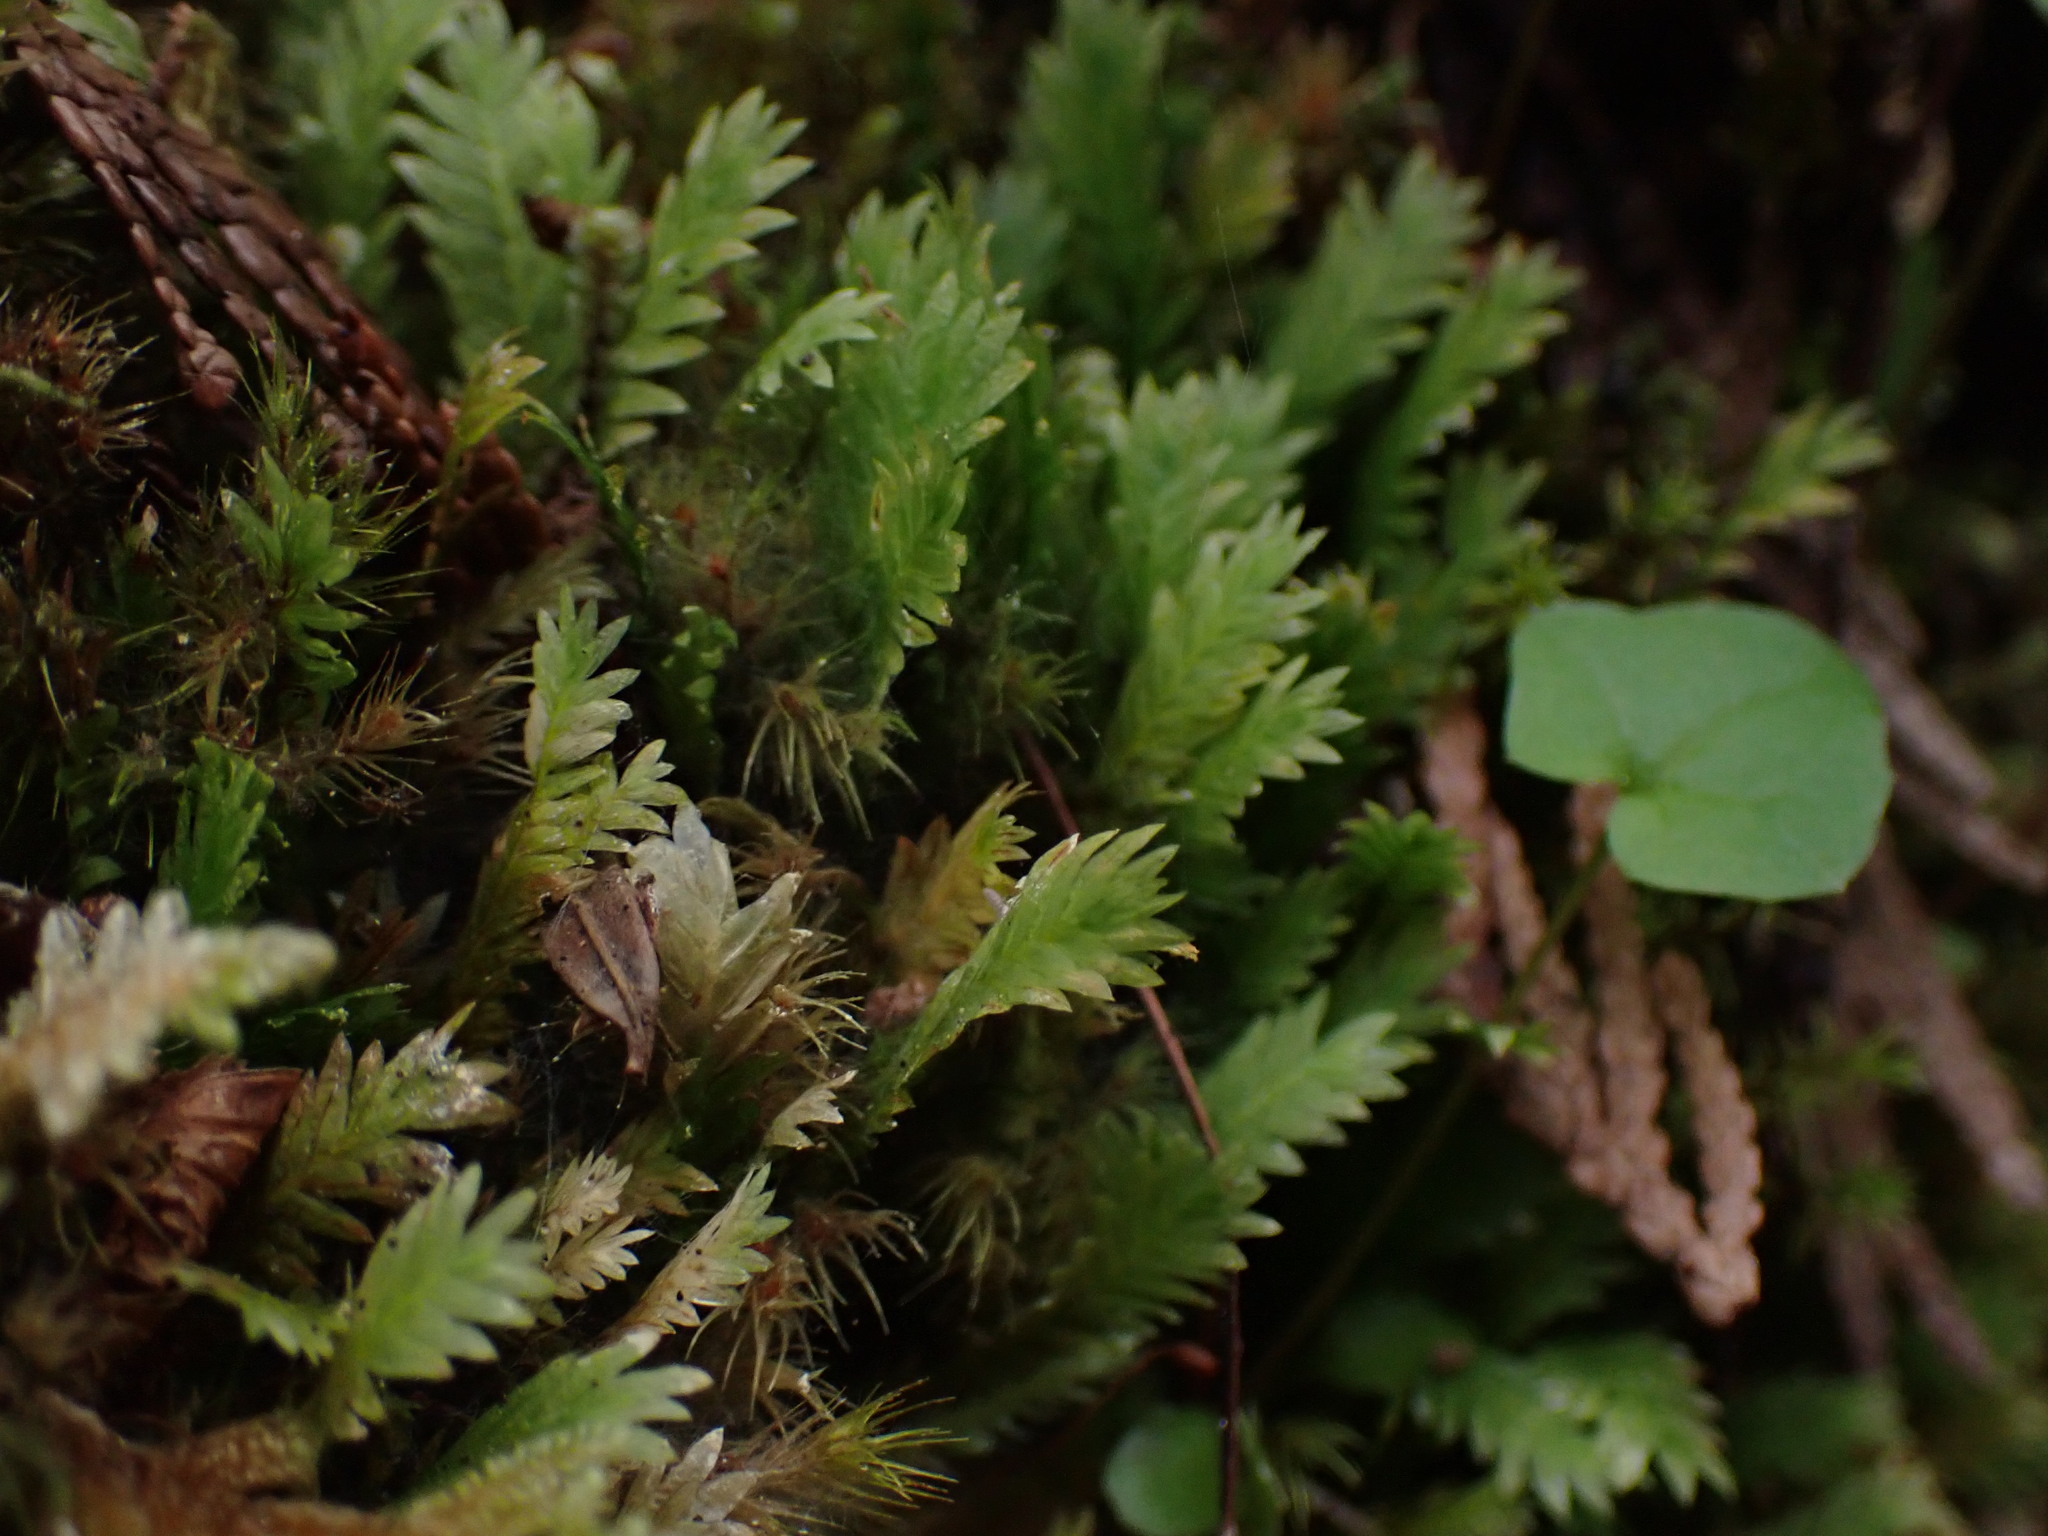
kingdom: Plantae
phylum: Bryophyta
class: Bryopsida
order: Dicranales
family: Fissidentaceae
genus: Fissidens
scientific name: Fissidens adianthoides
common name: Maidenhair pocket moss
